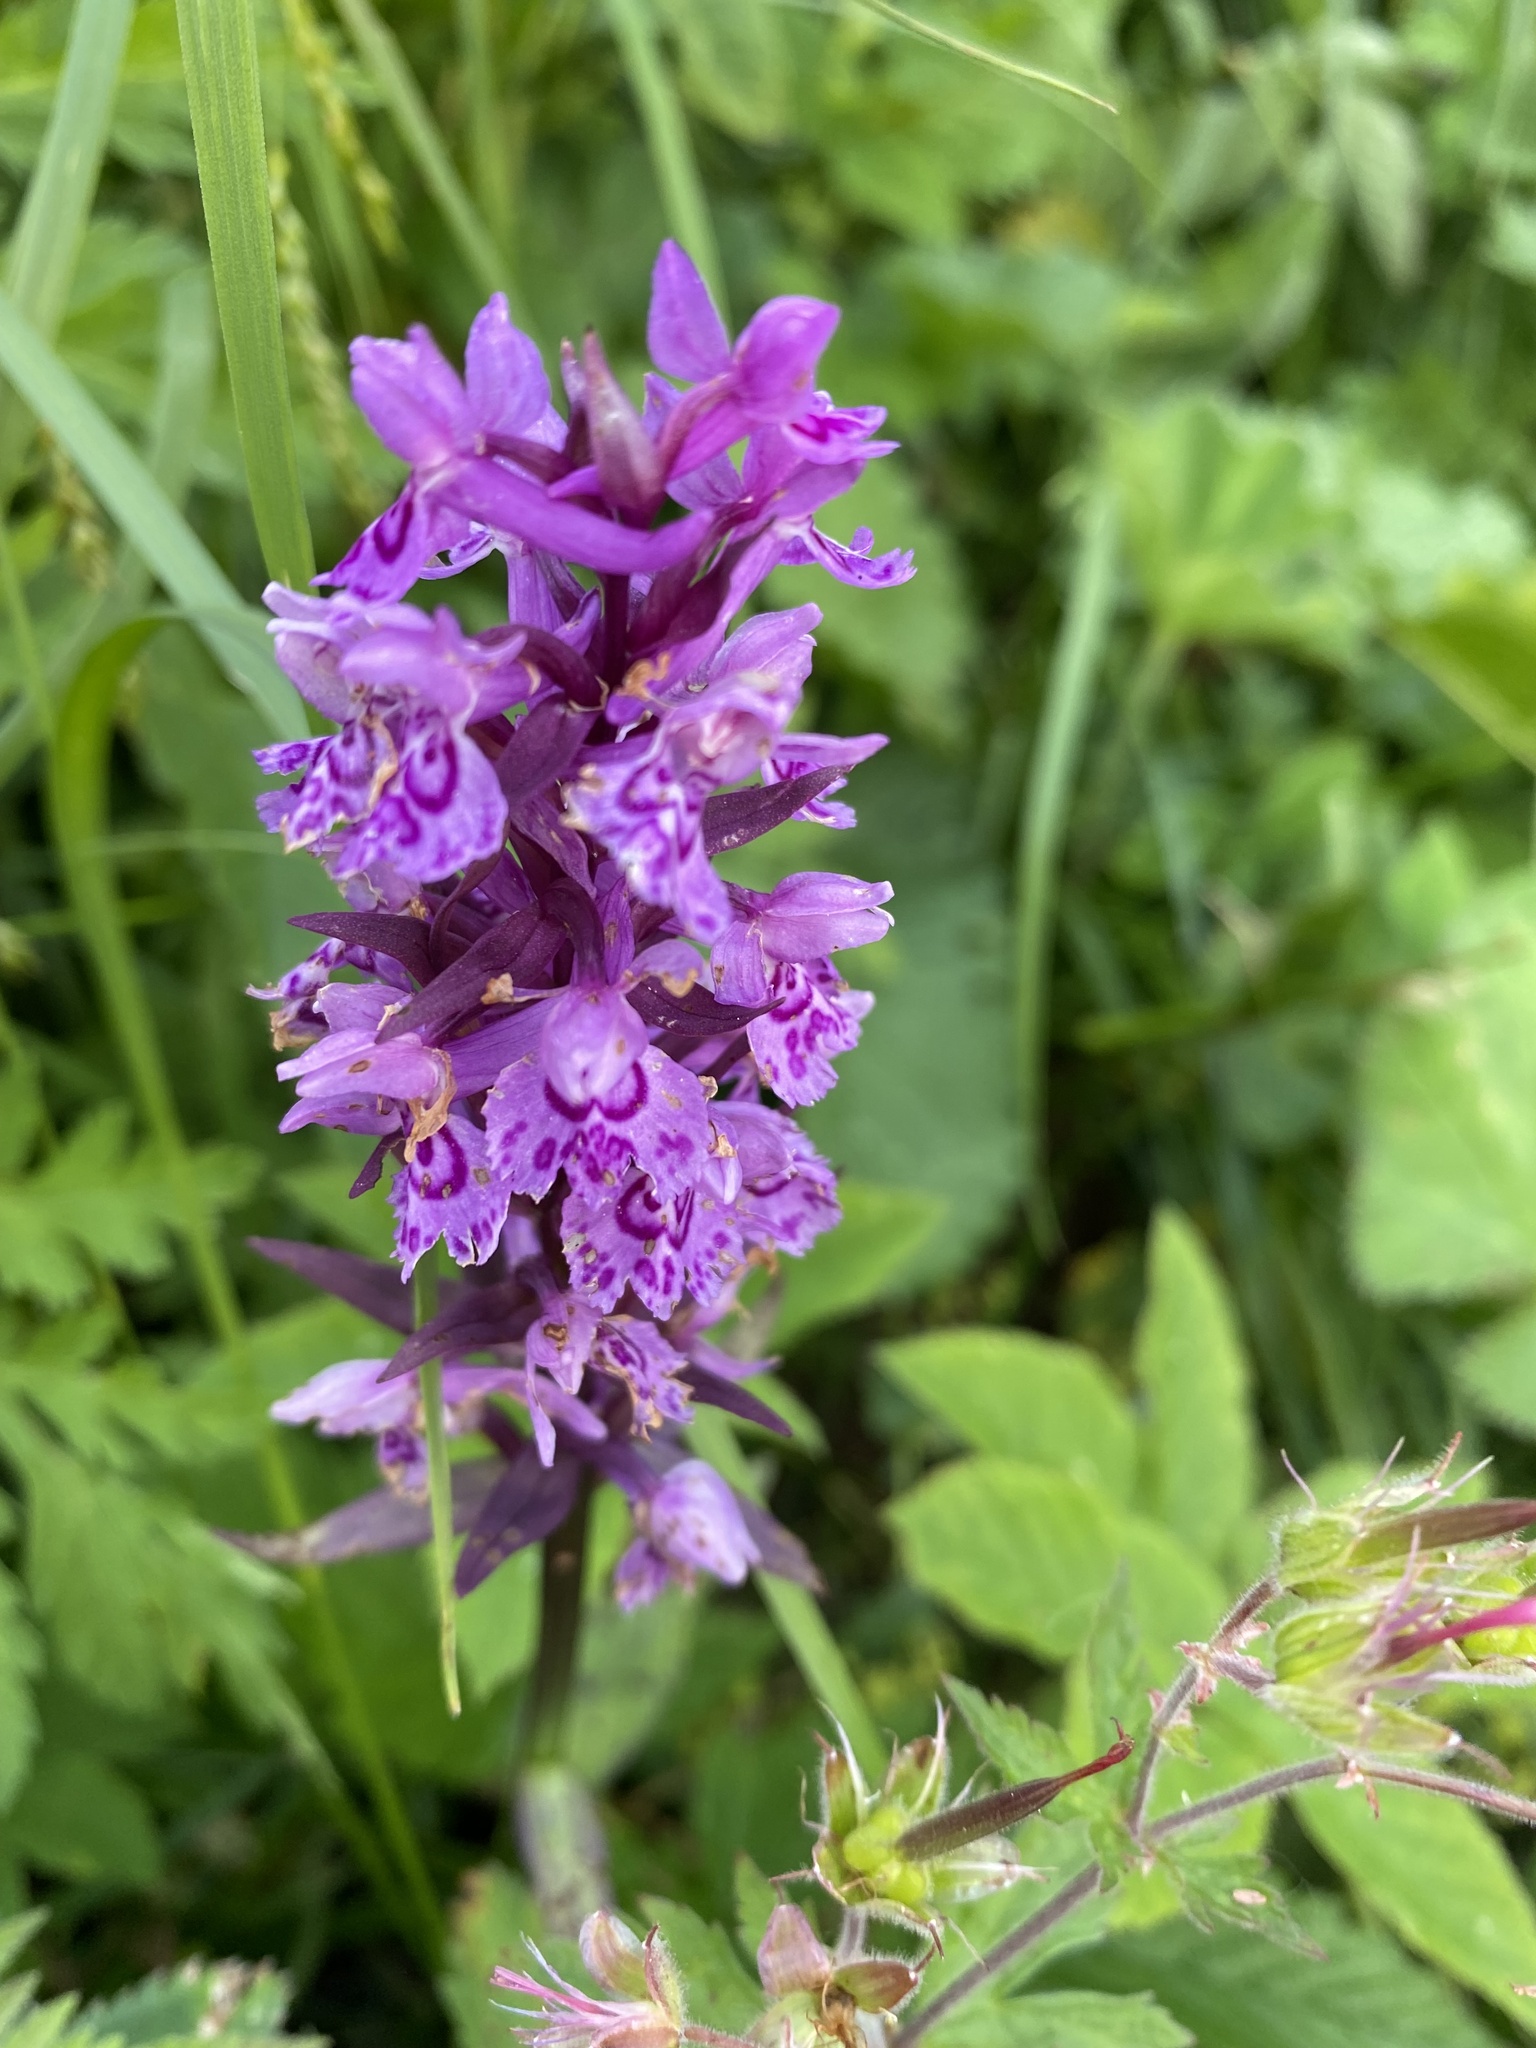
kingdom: Plantae
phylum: Tracheophyta
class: Liliopsida
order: Asparagales
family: Orchidaceae
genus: Dactylorhiza
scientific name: Dactylorhiza euxina
